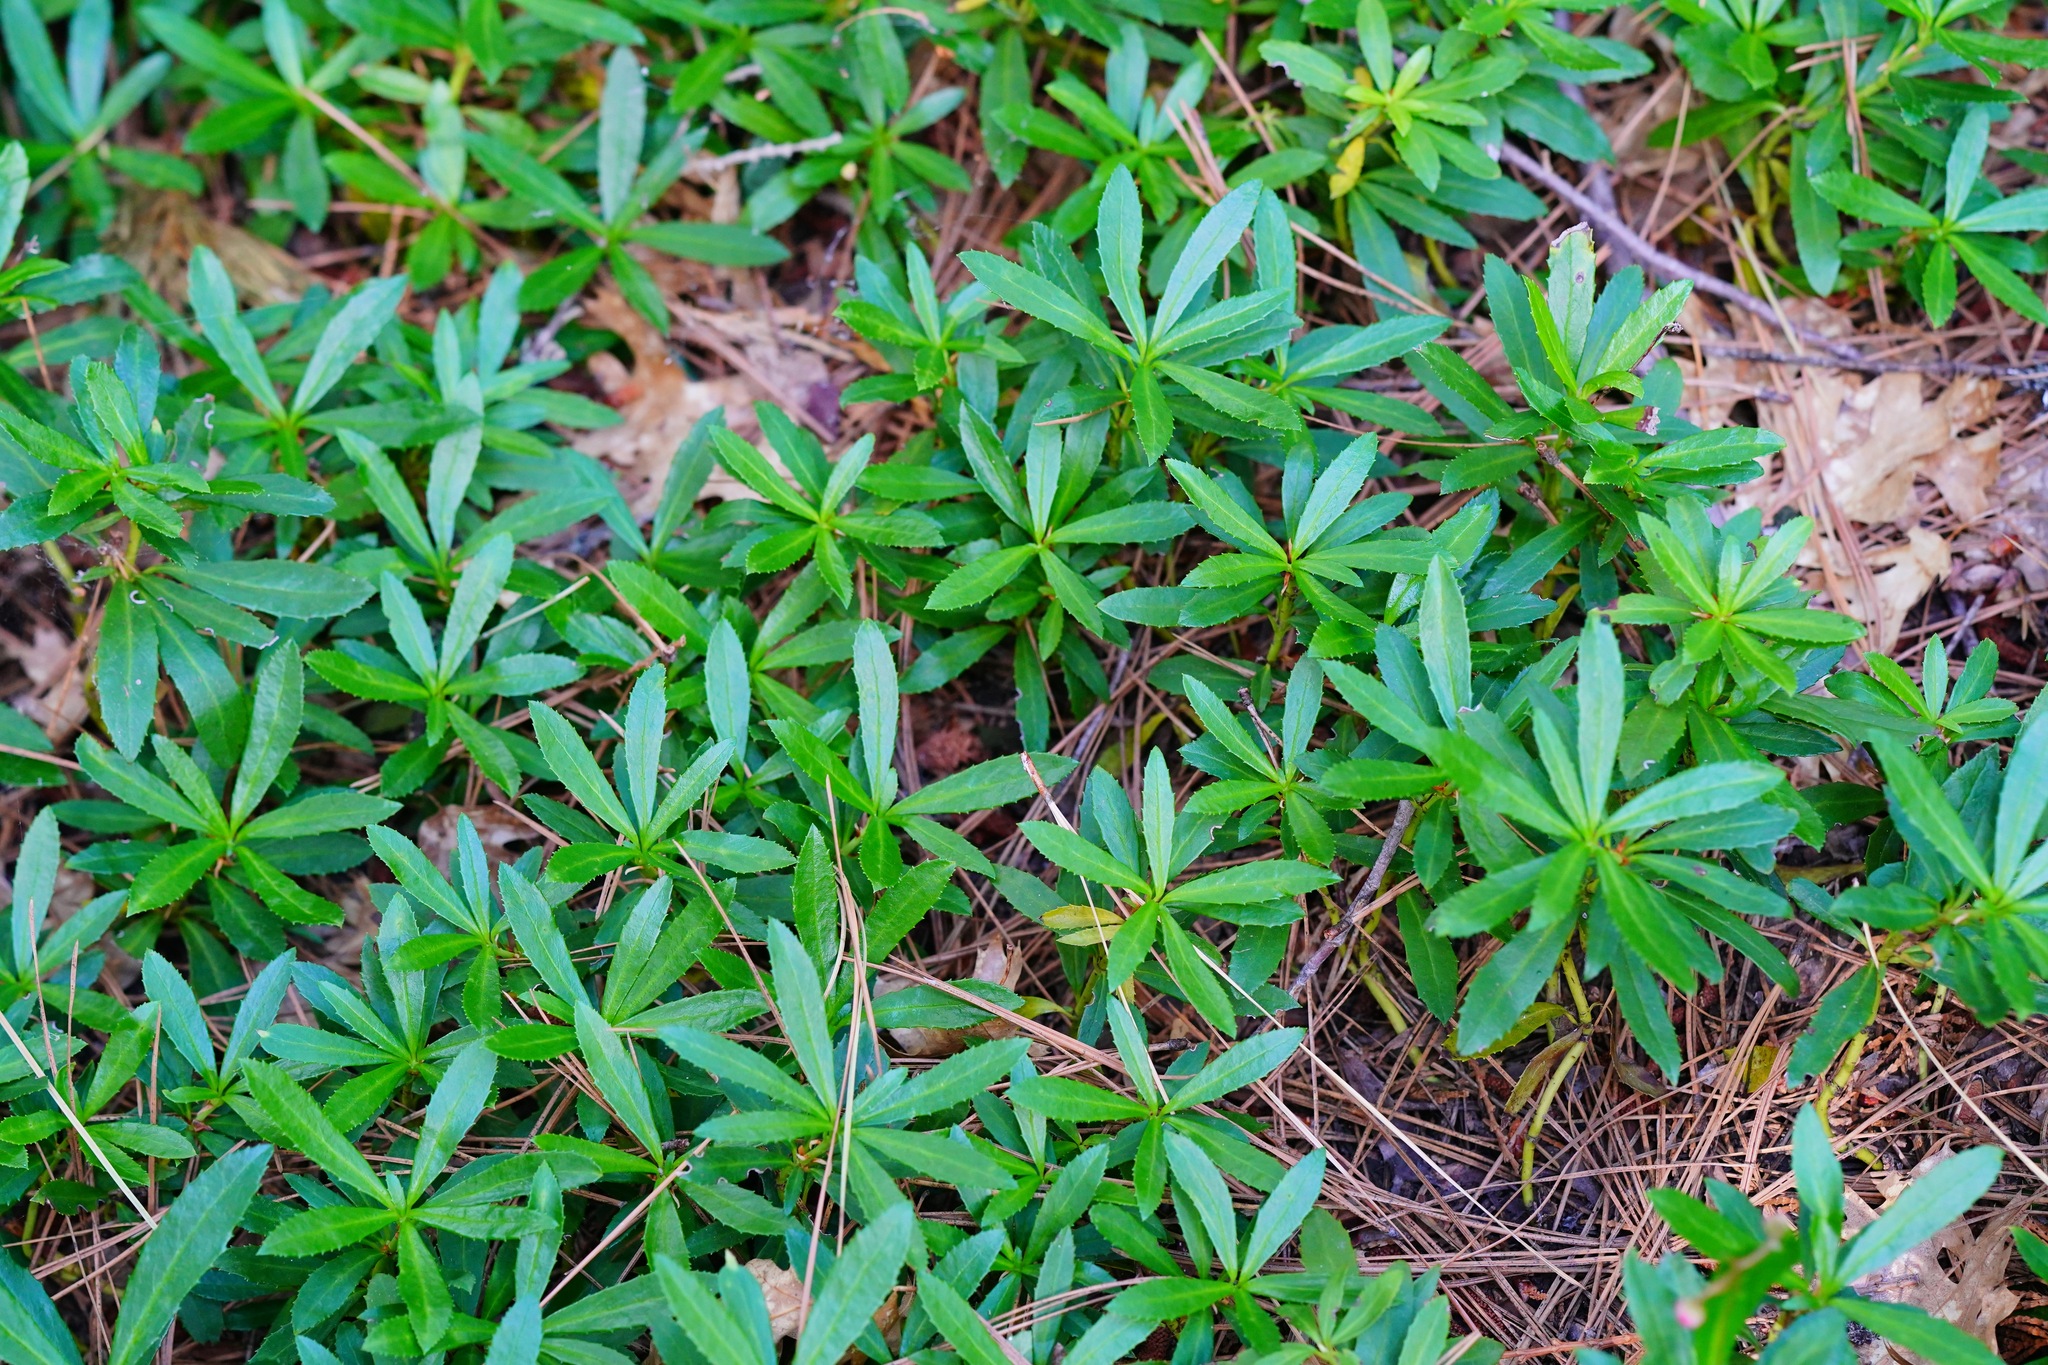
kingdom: Plantae
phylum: Tracheophyta
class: Magnoliopsida
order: Ericales
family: Ericaceae
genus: Chimaphila
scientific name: Chimaphila umbellata
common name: Pipsissewa
